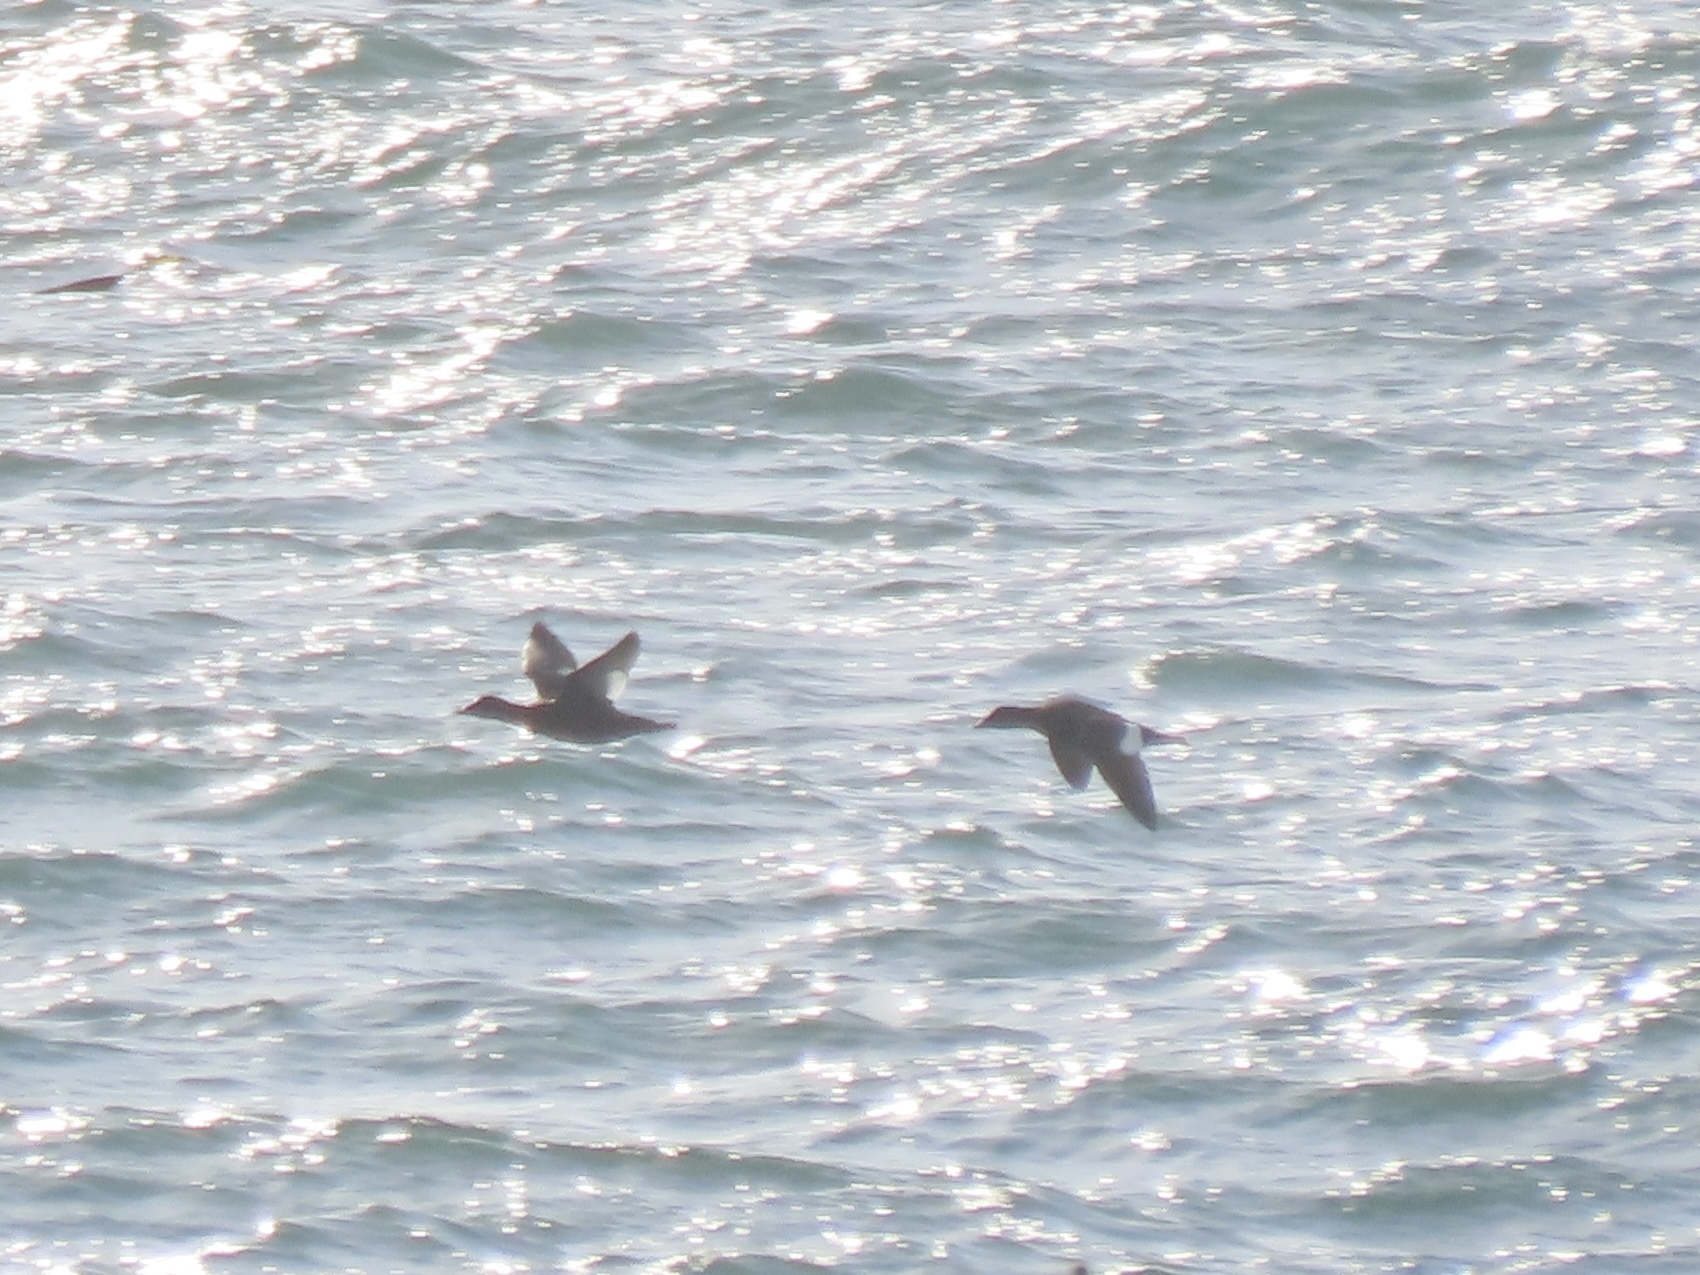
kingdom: Animalia
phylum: Chordata
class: Aves
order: Anseriformes
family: Anatidae
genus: Melanitta
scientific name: Melanitta deglandi
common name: White-winged scoter
